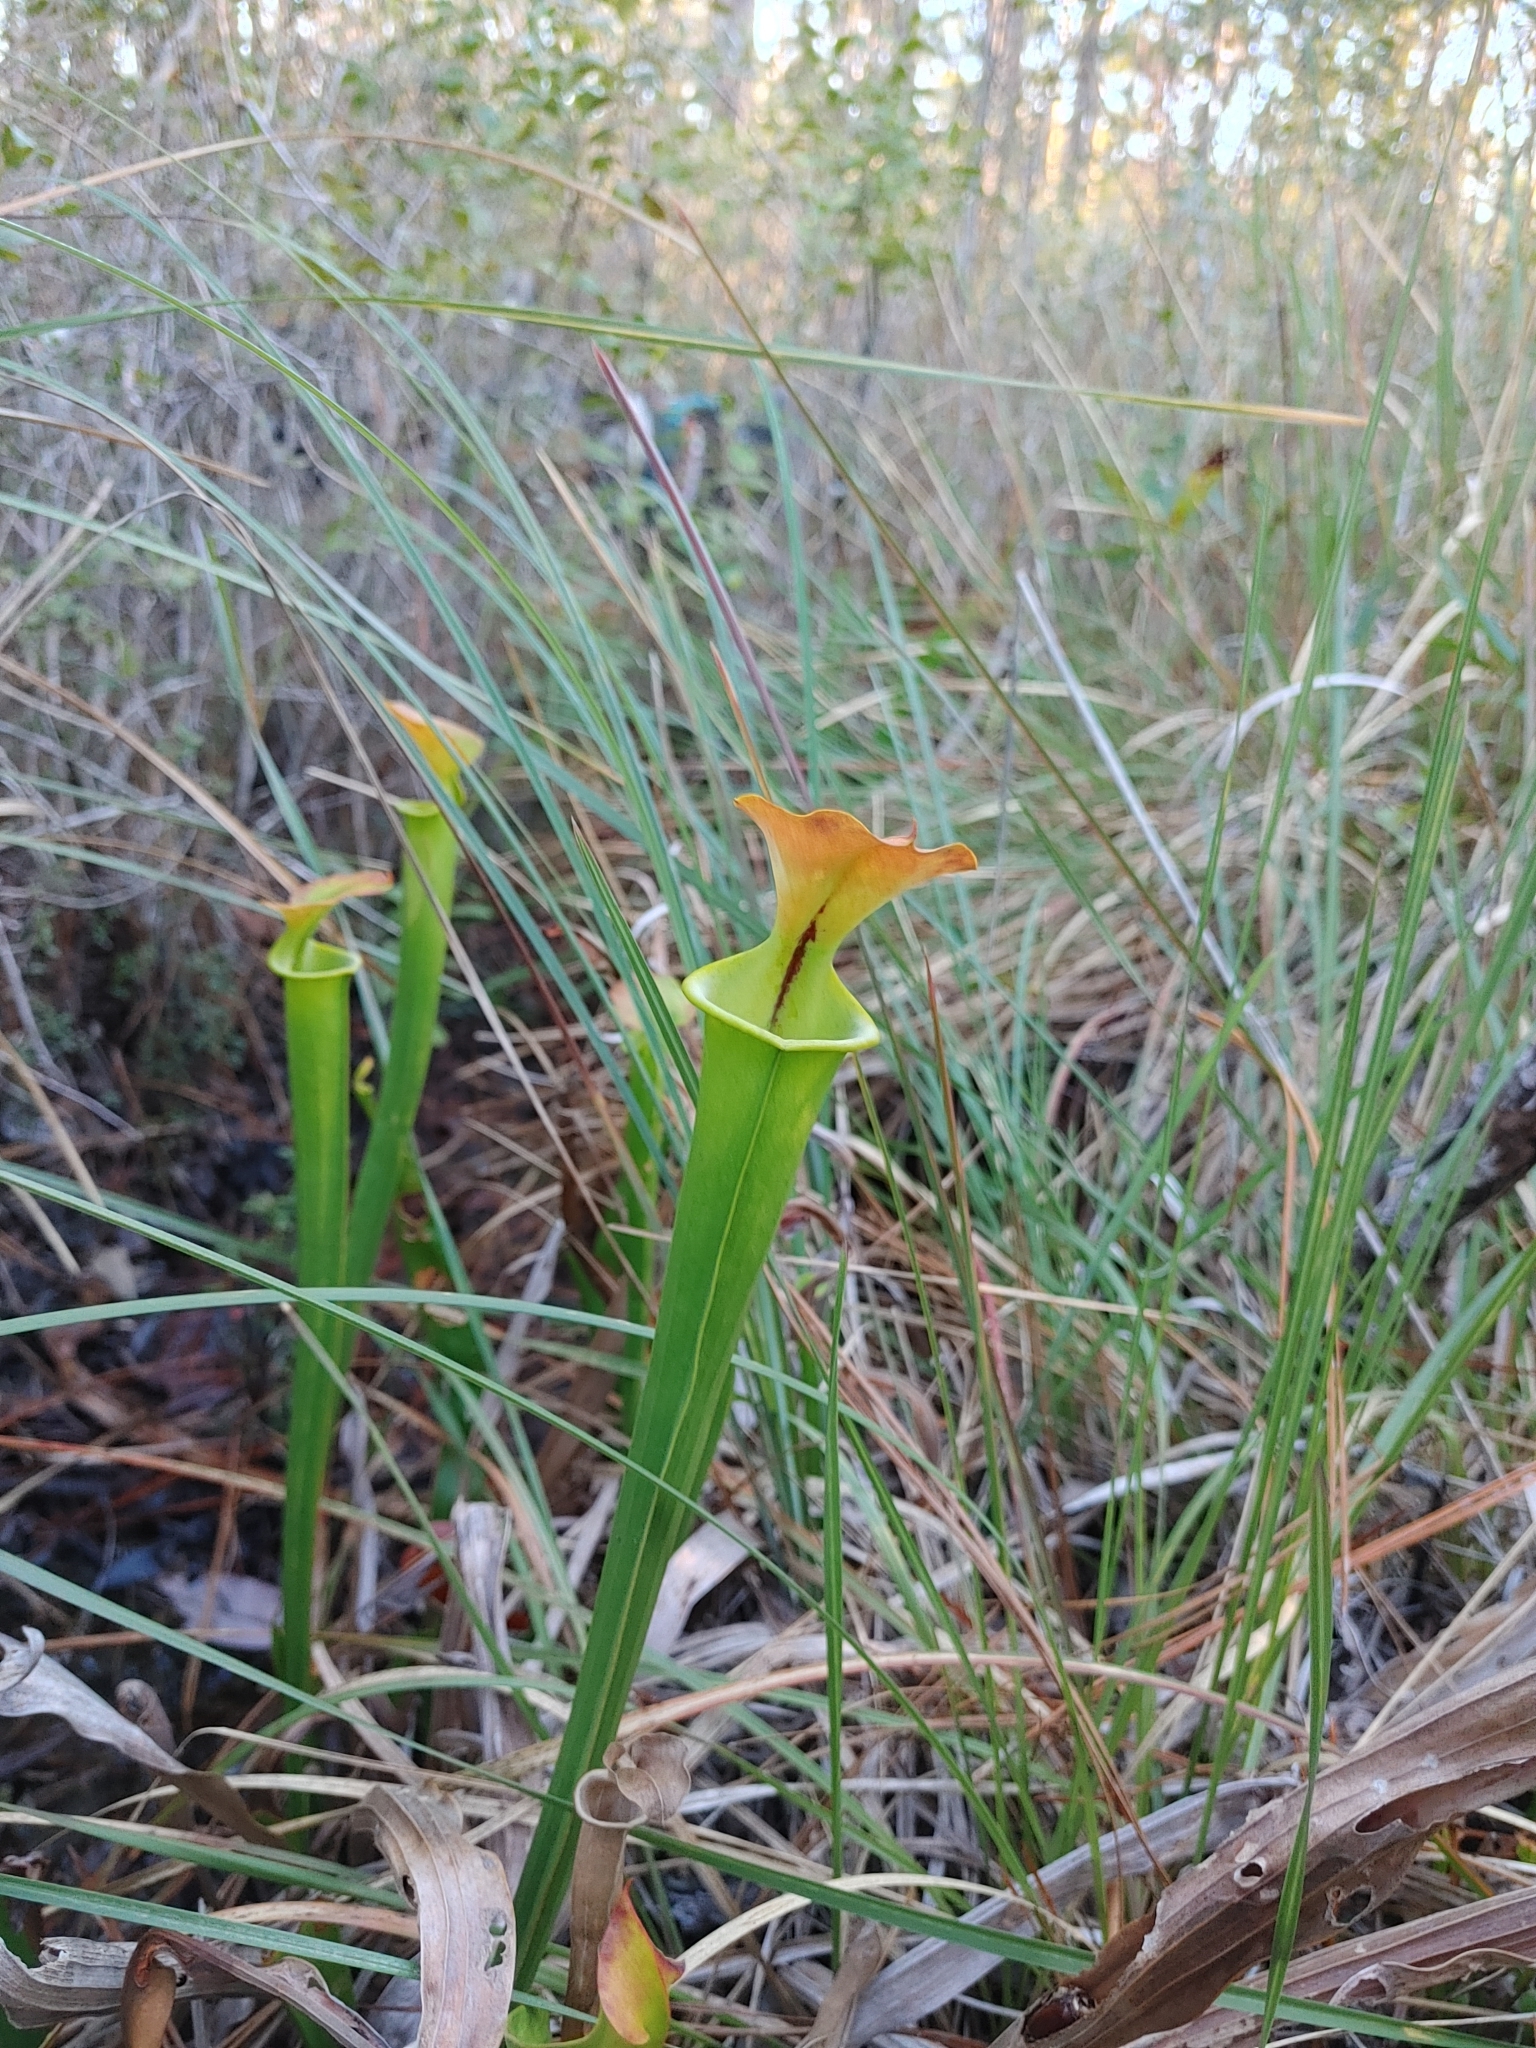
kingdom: Plantae
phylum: Tracheophyta
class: Magnoliopsida
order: Ericales
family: Sarraceniaceae
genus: Sarracenia
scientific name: Sarracenia flava
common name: Trumpets
